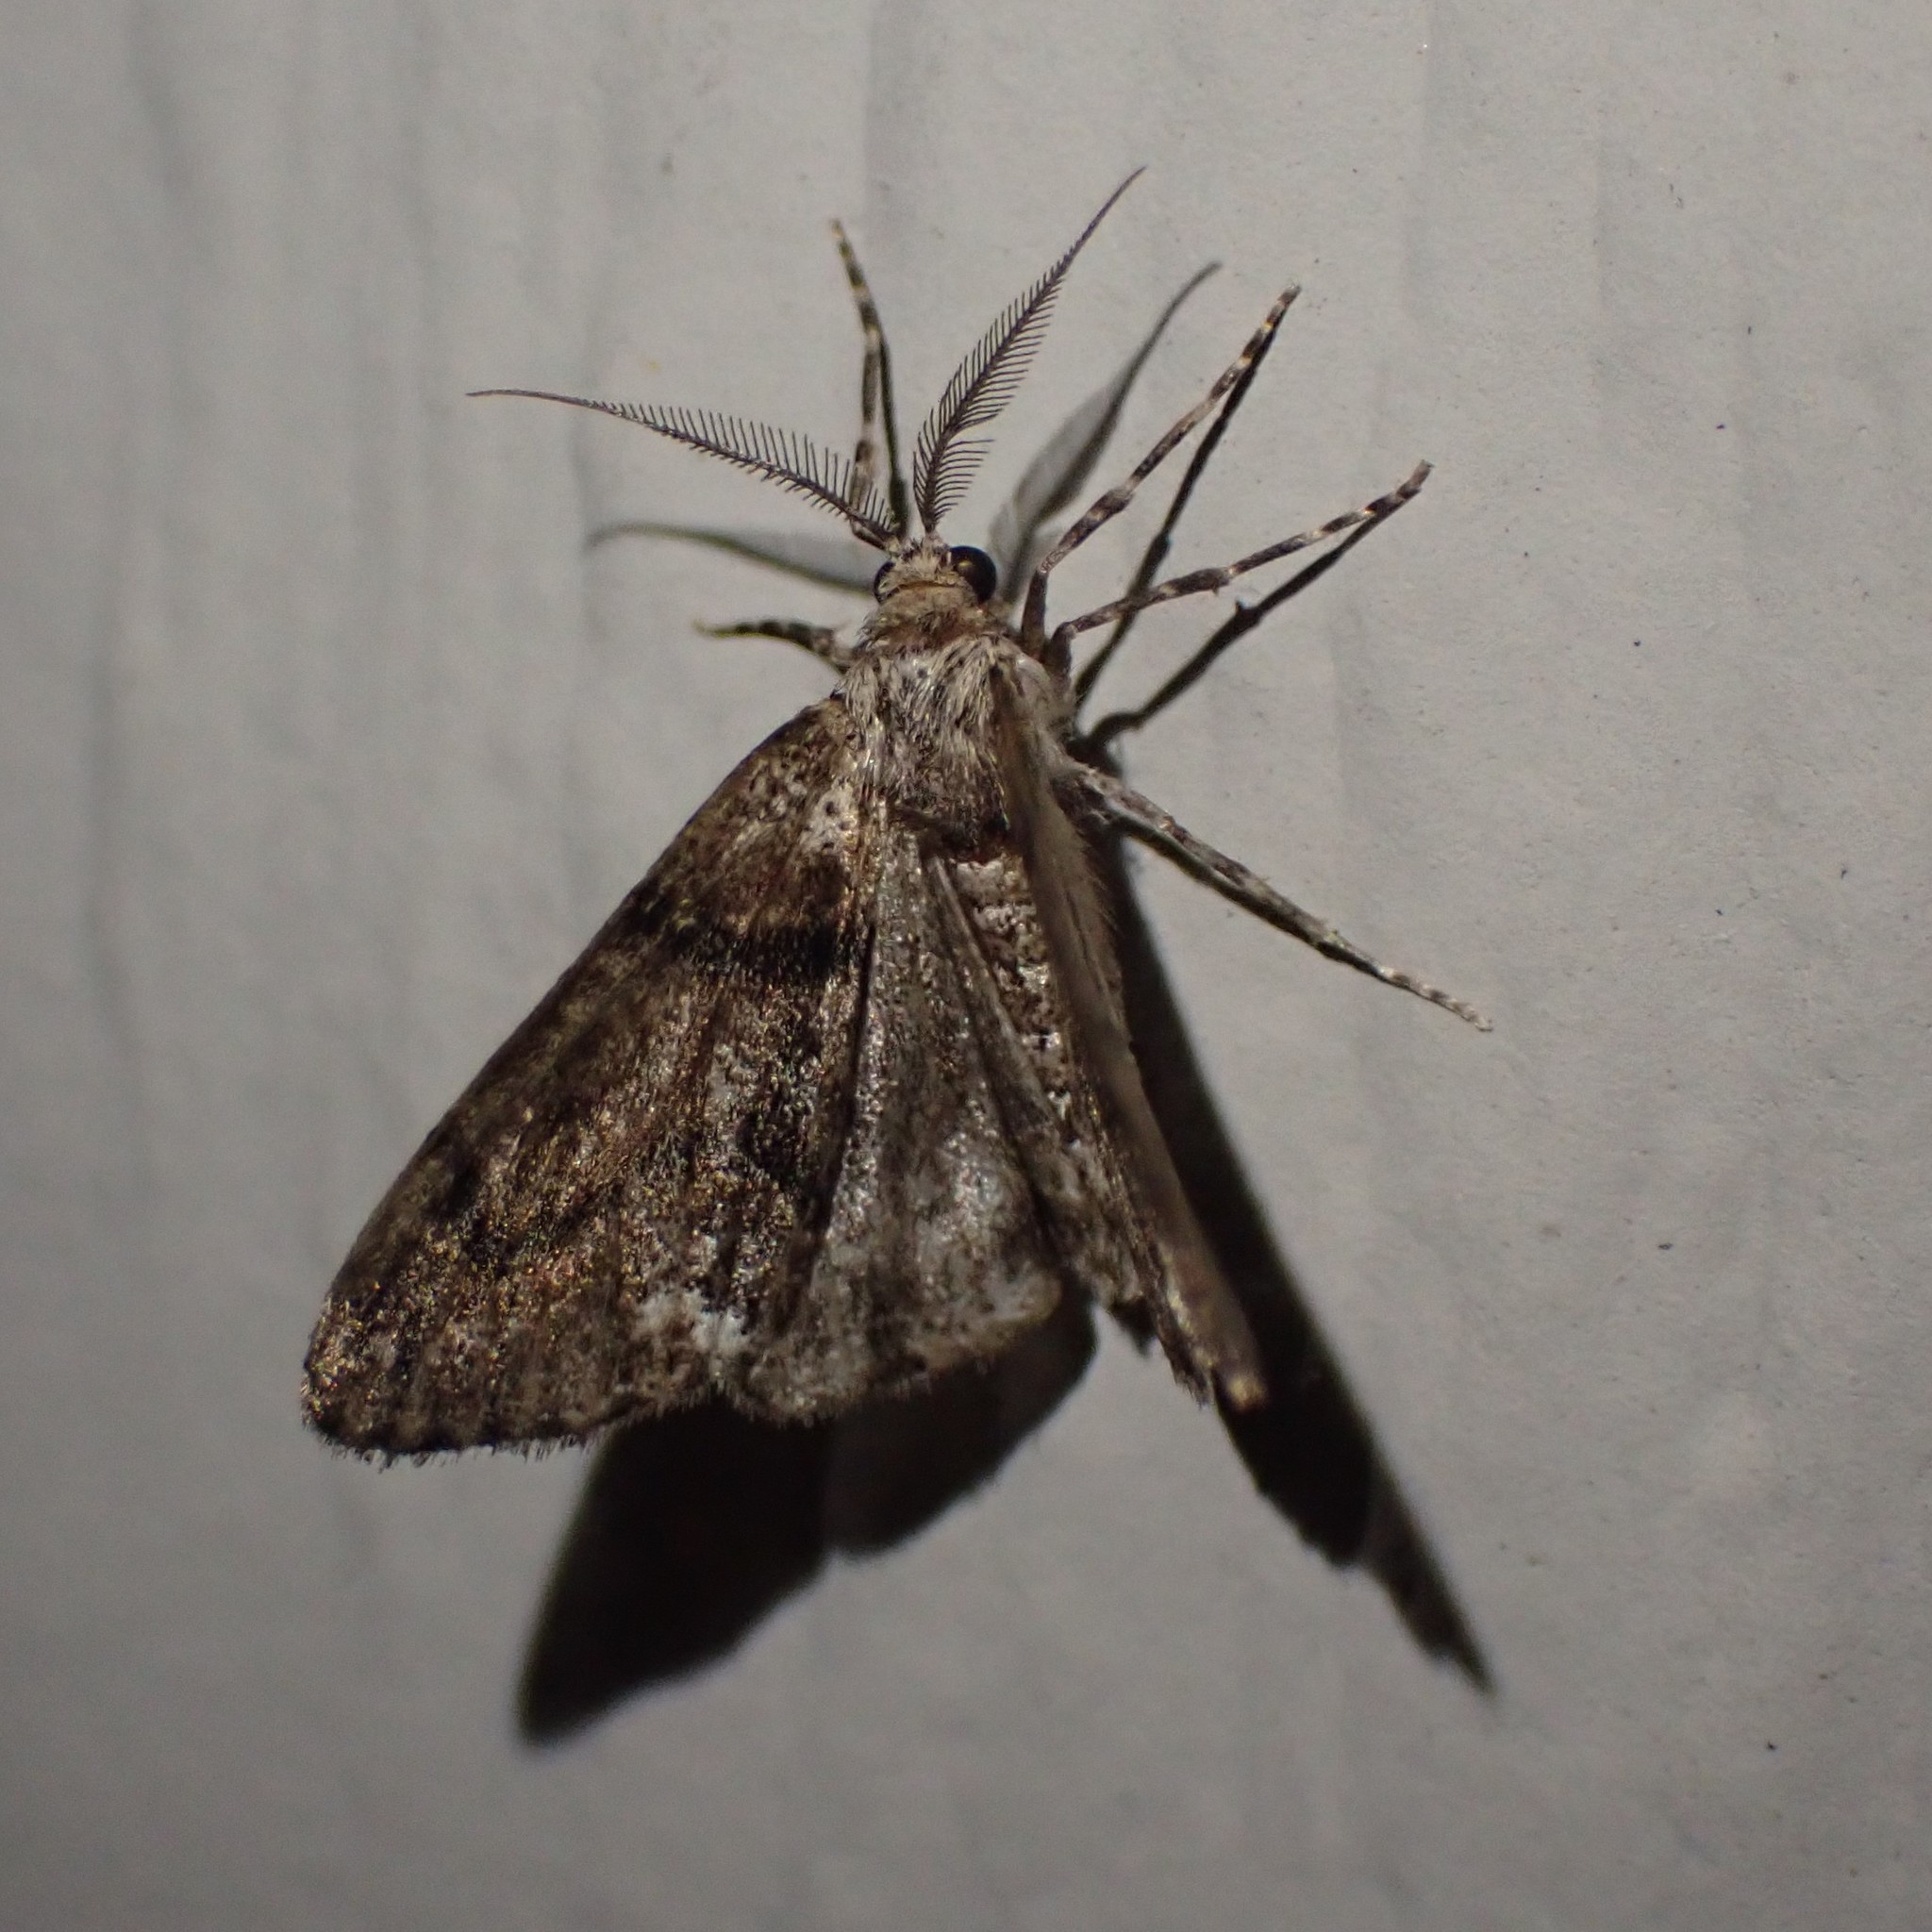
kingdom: Animalia
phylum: Arthropoda
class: Insecta
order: Lepidoptera
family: Geometridae
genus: Gabriola
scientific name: Gabriola dyari
